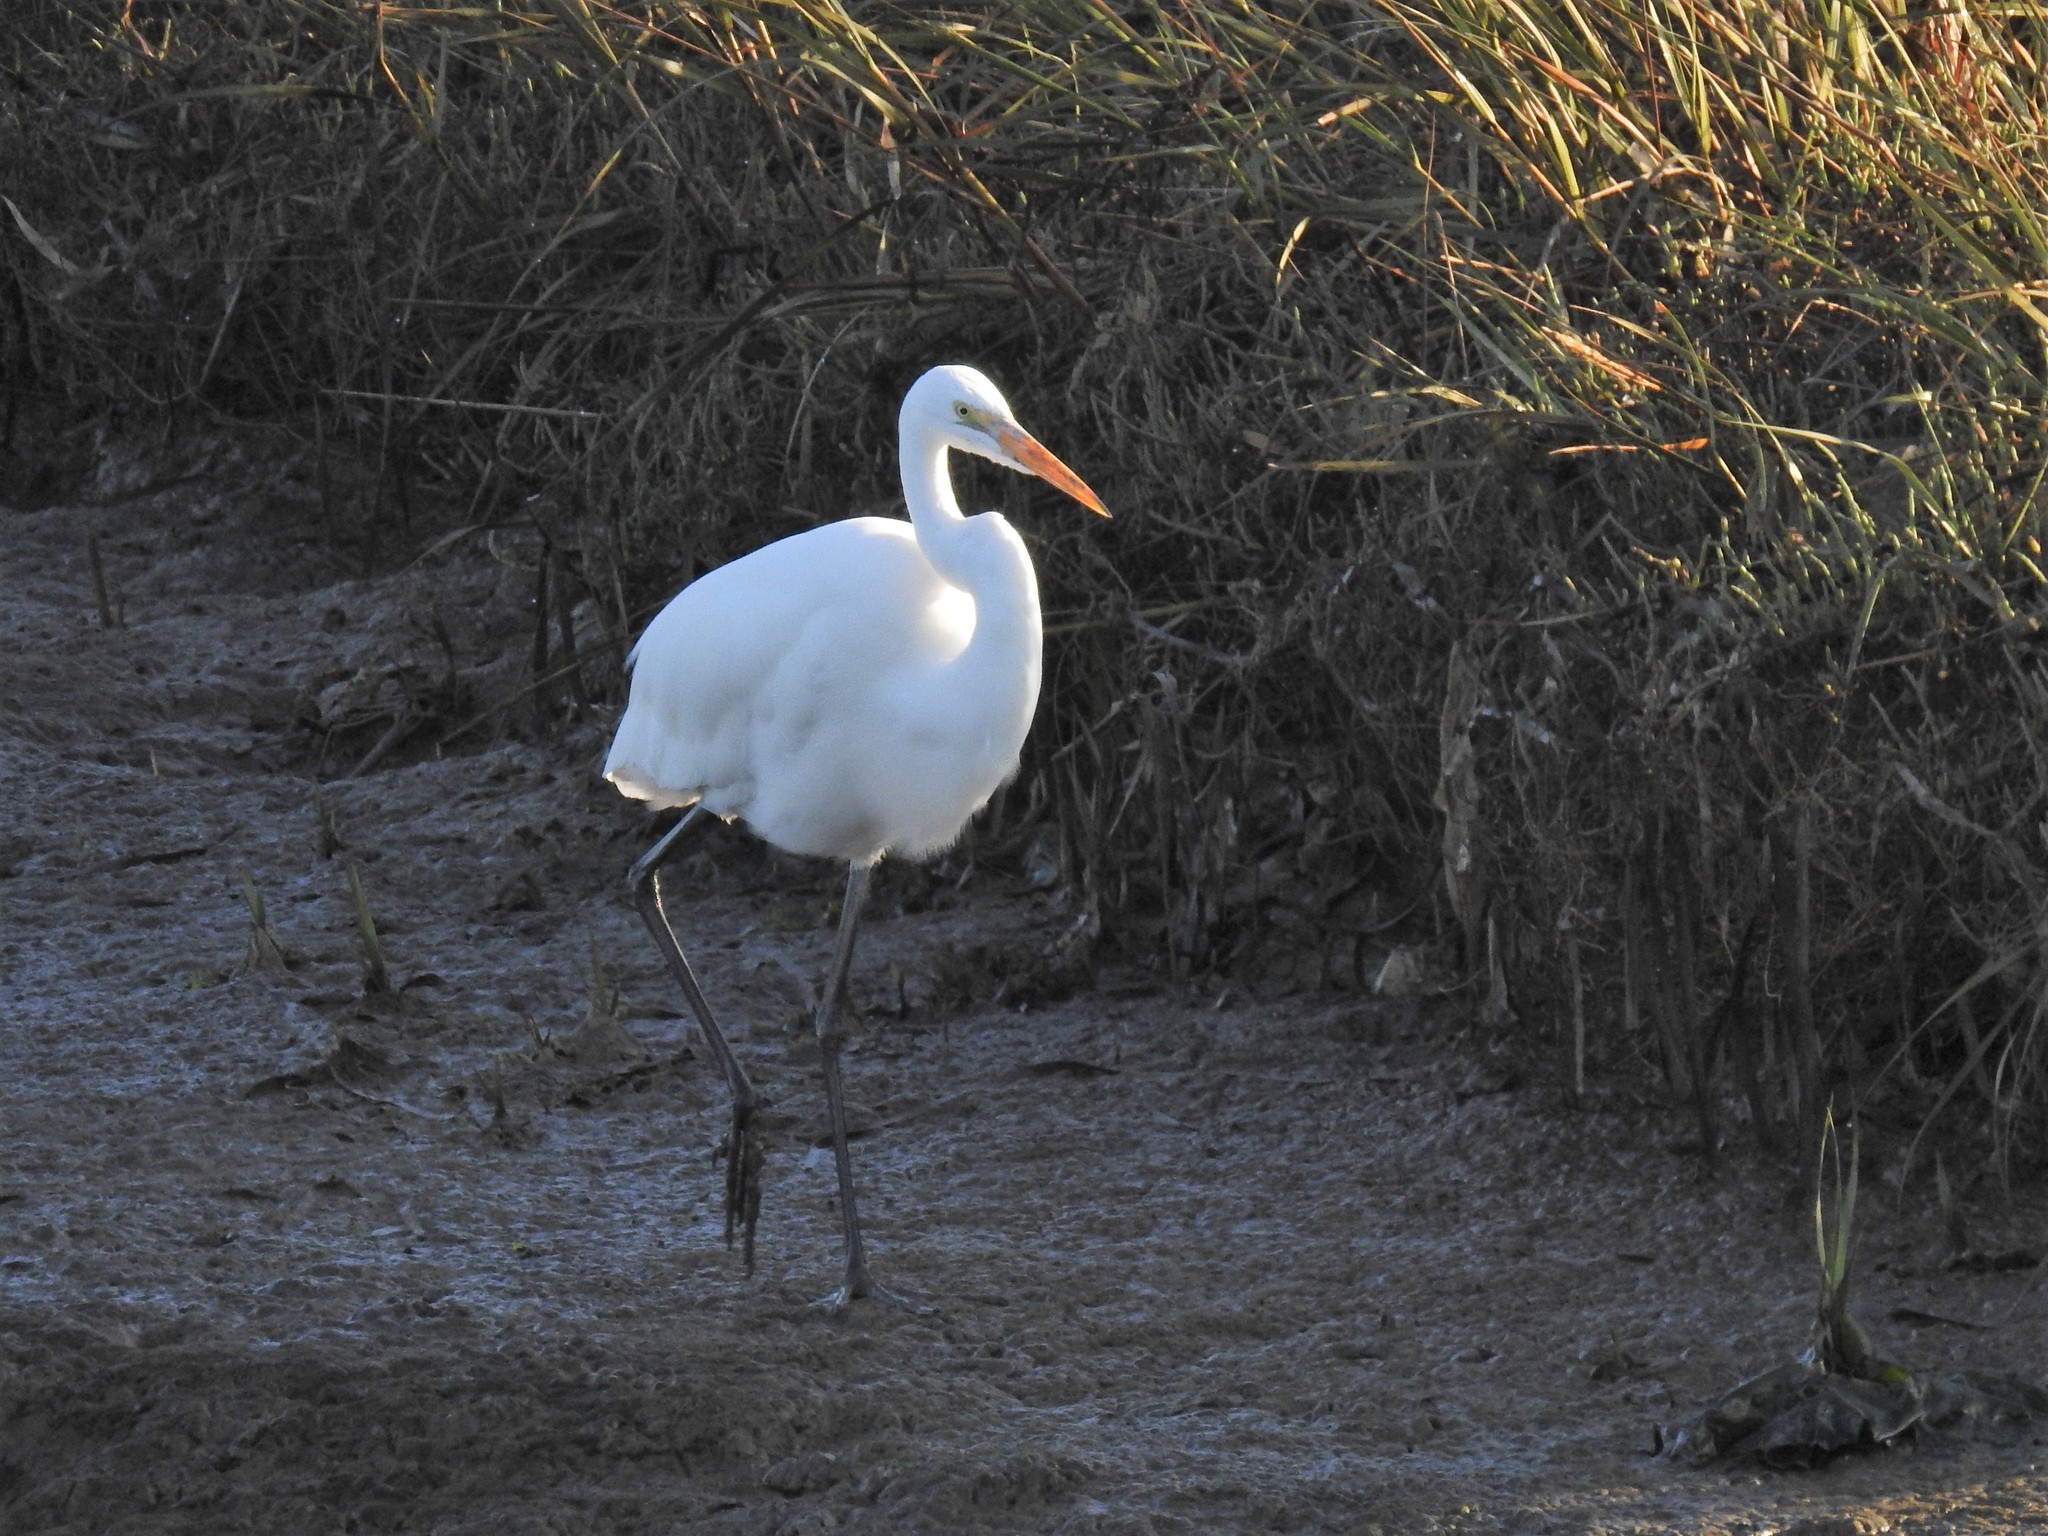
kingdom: Animalia
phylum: Chordata
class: Aves
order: Pelecaniformes
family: Ardeidae
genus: Ardea
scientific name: Ardea alba
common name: Great egret
